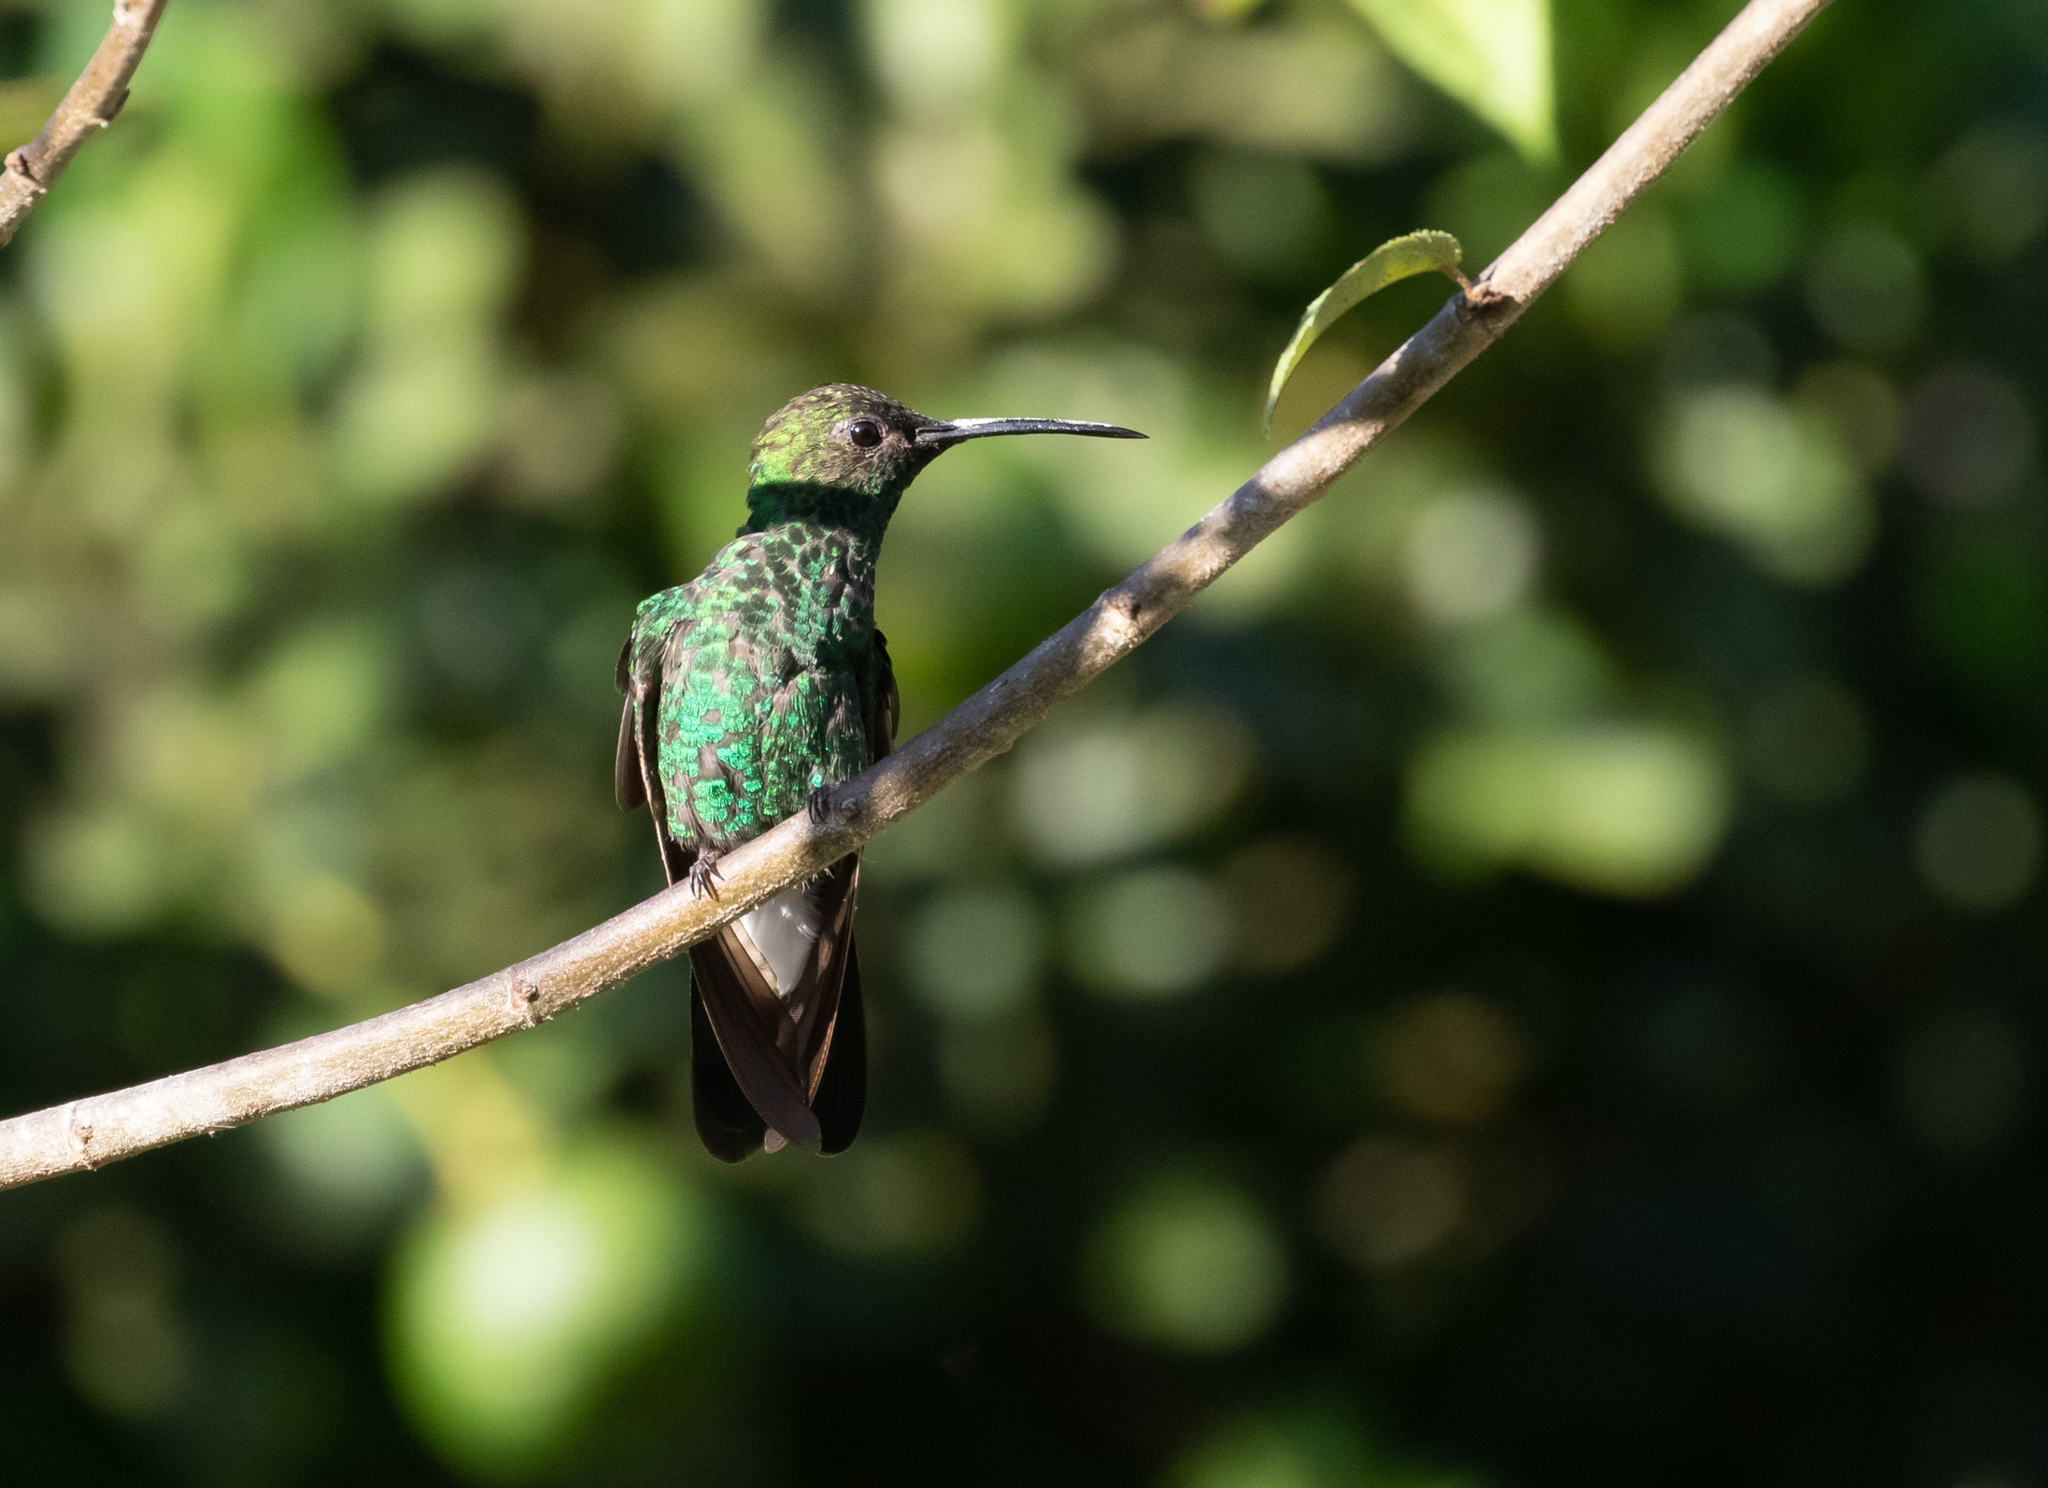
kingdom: Animalia
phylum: Chordata
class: Aves
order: Apodiformes
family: Trochilidae
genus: Chalybura
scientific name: Chalybura buffonii
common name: White-vented plumeleteer
